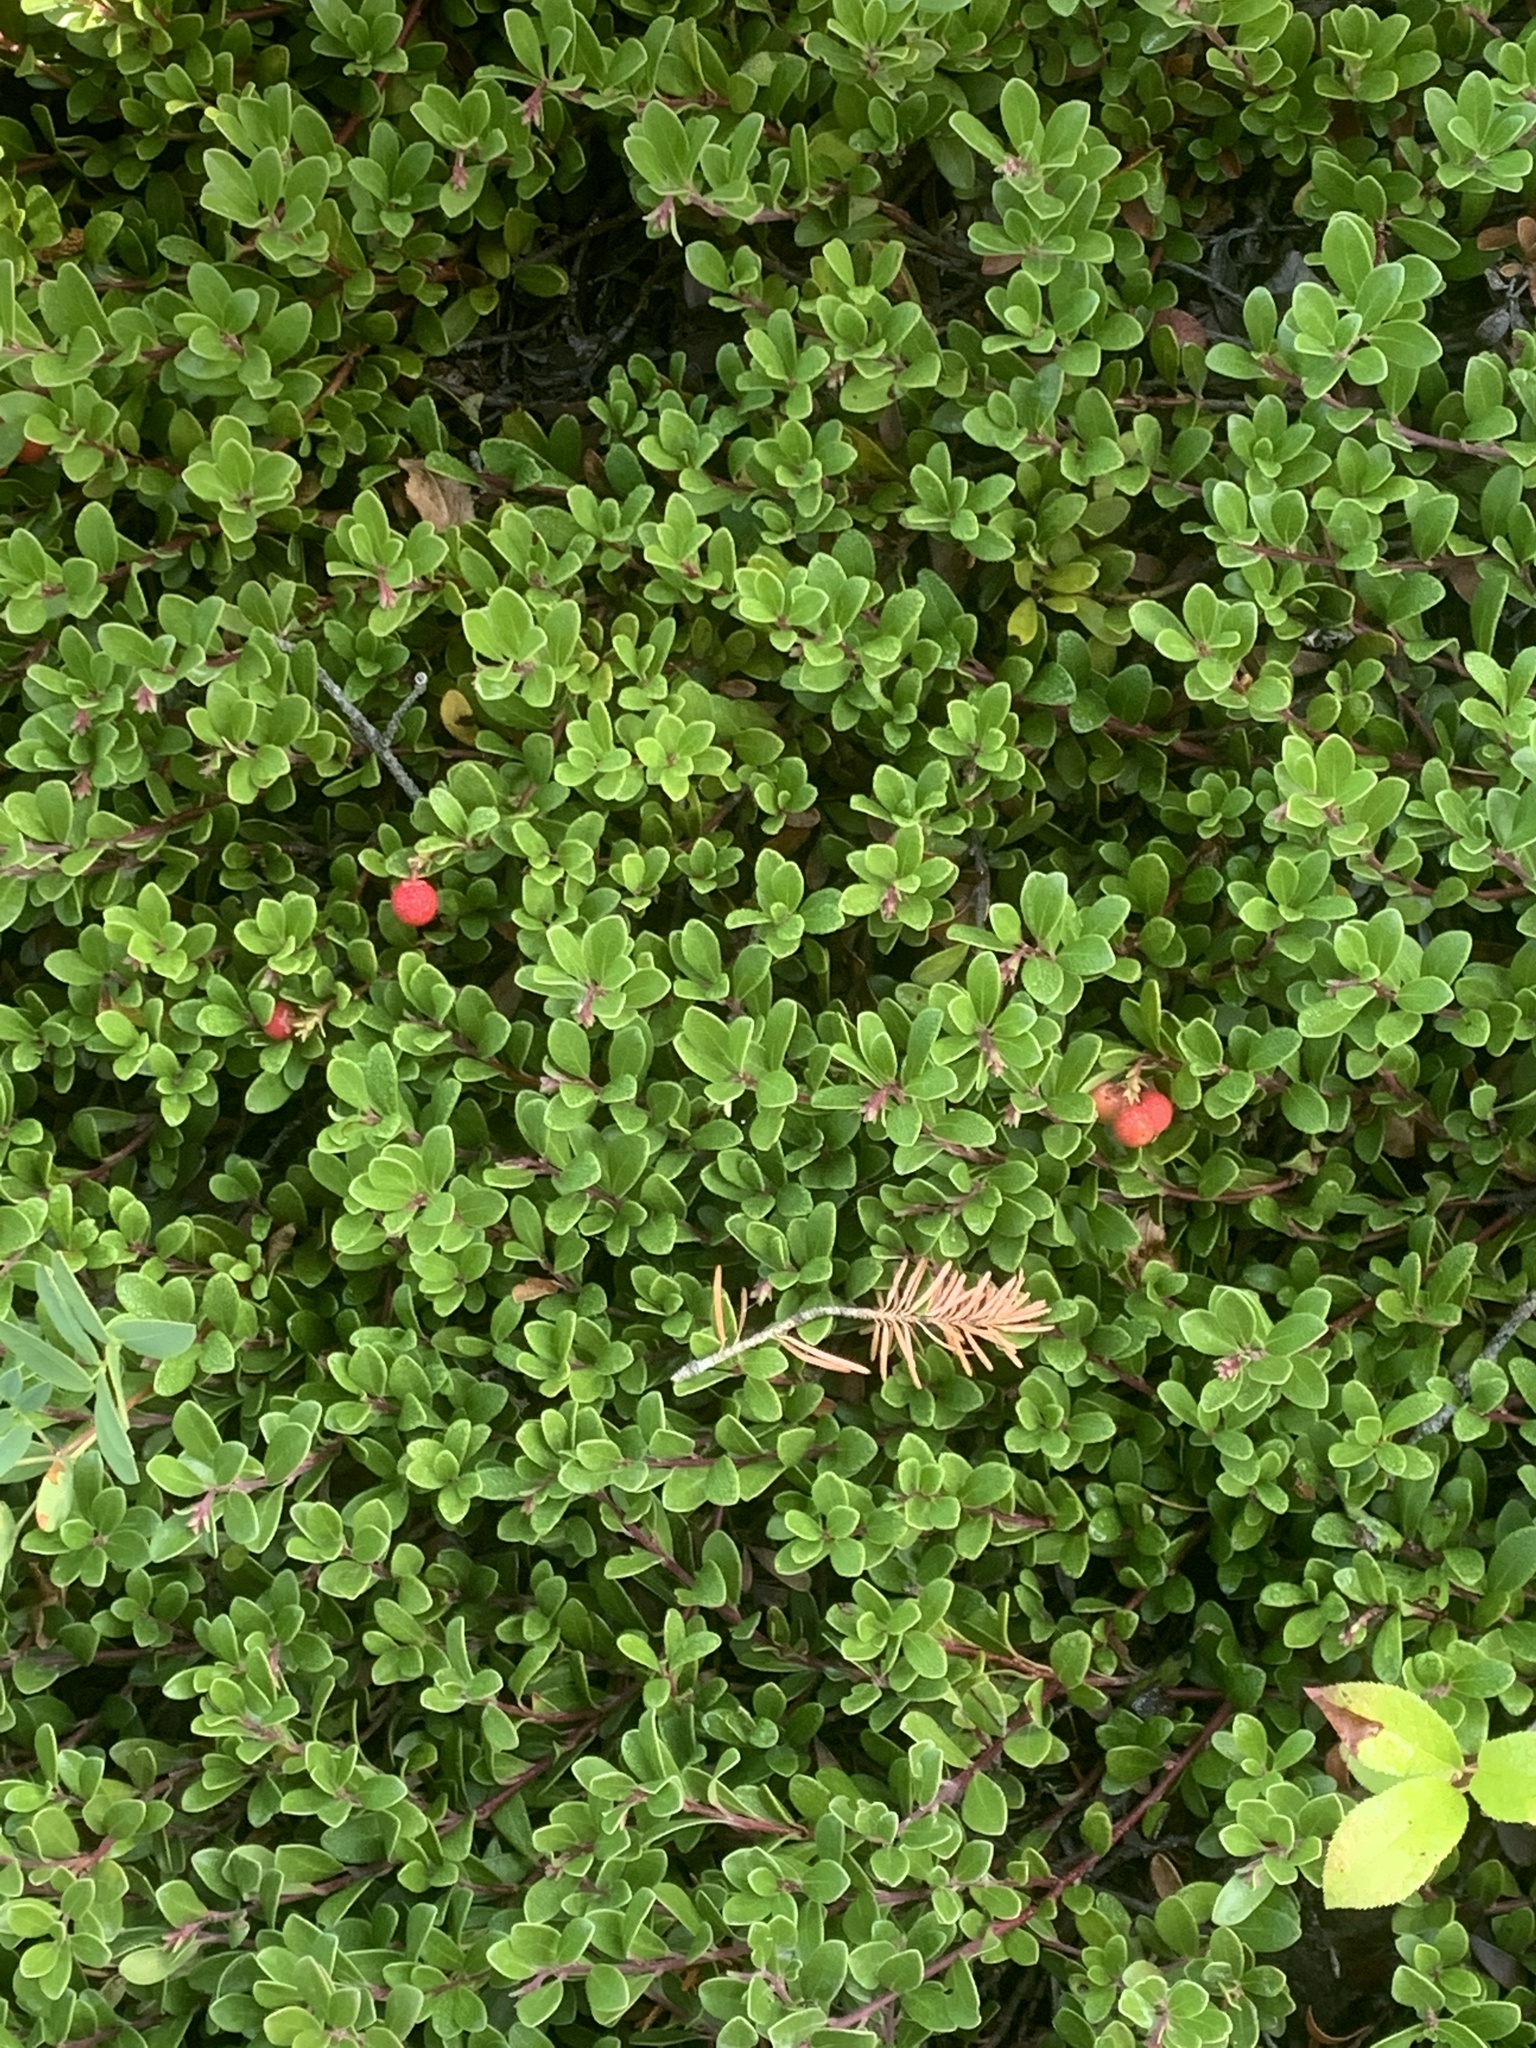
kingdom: Plantae
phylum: Tracheophyta
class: Magnoliopsida
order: Ericales
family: Ericaceae
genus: Arctostaphylos
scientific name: Arctostaphylos uva-ursi
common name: Bearberry
